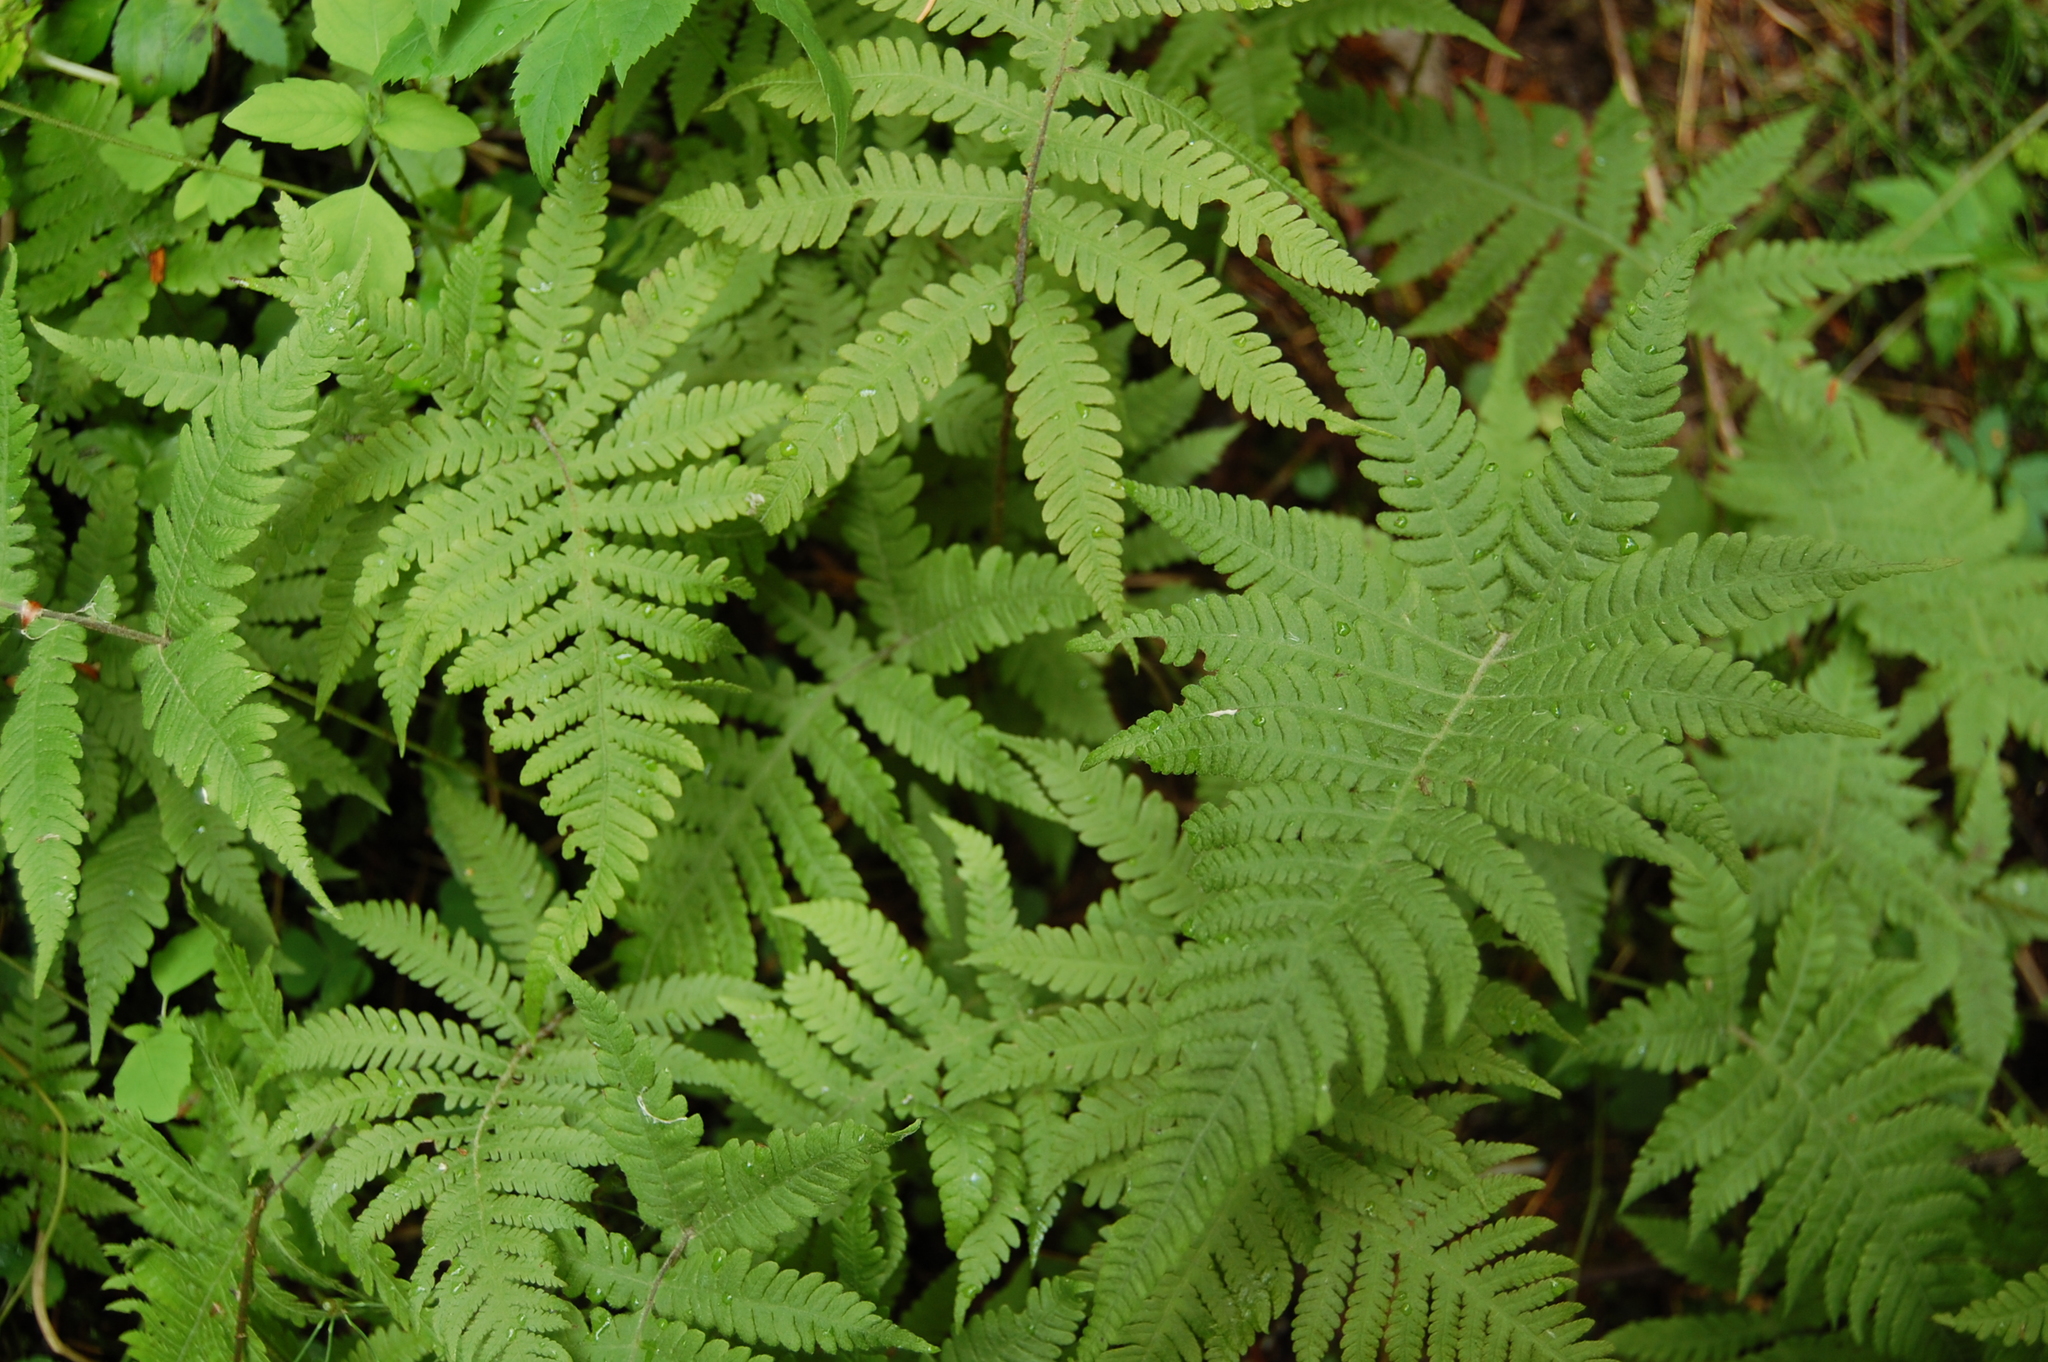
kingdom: Plantae
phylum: Tracheophyta
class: Polypodiopsida
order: Polypodiales
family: Thelypteridaceae
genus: Phegopteris
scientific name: Phegopteris connectilis
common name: Beech fern
